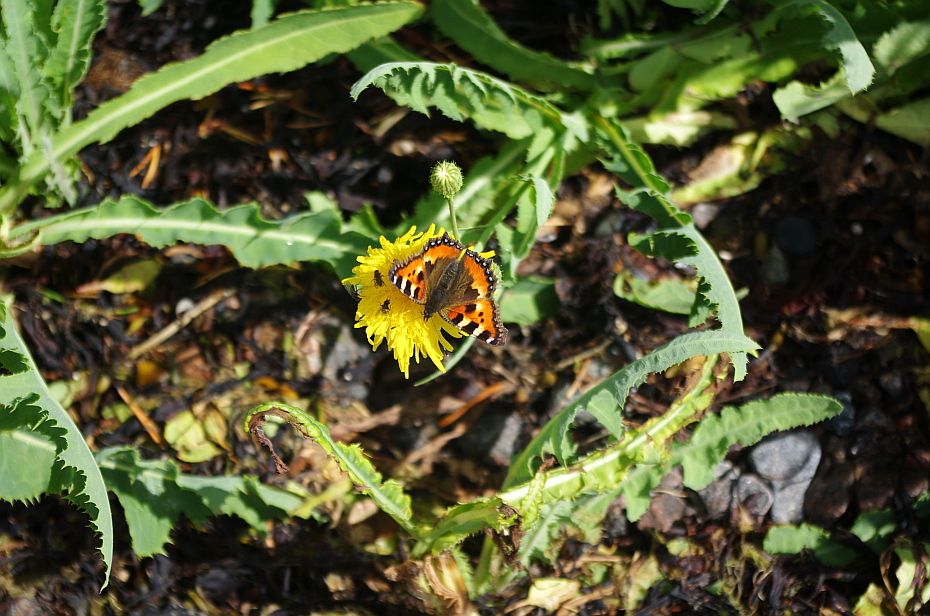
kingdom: Animalia
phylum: Arthropoda
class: Insecta
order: Lepidoptera
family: Nymphalidae
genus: Aglais
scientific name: Aglais urticae
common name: Small tortoiseshell
